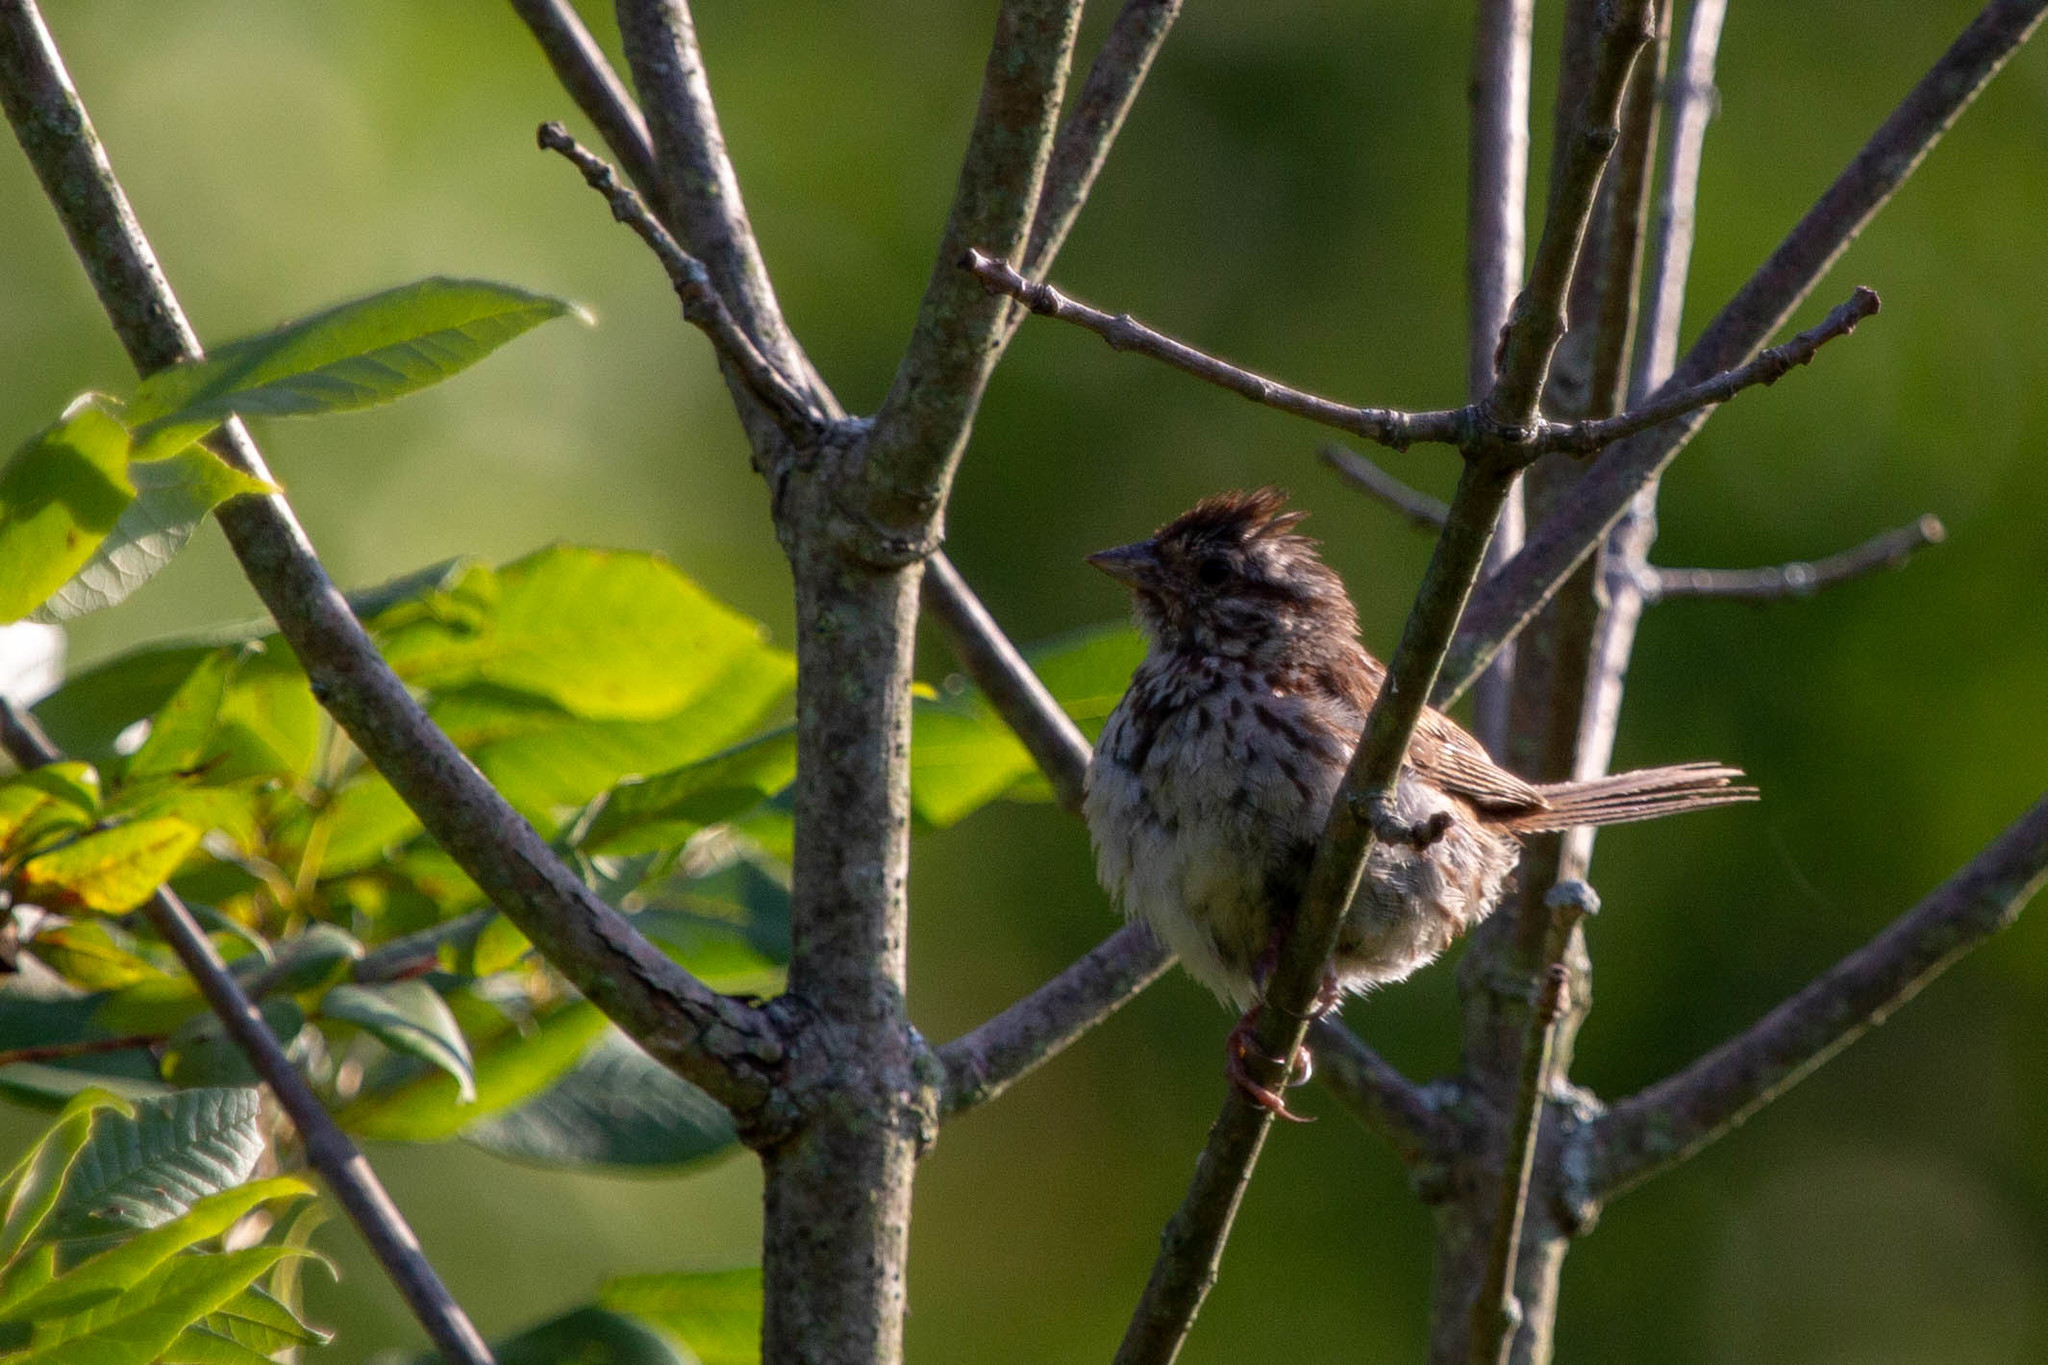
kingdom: Animalia
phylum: Chordata
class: Aves
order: Passeriformes
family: Passerellidae
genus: Melospiza
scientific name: Melospiza melodia
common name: Song sparrow
